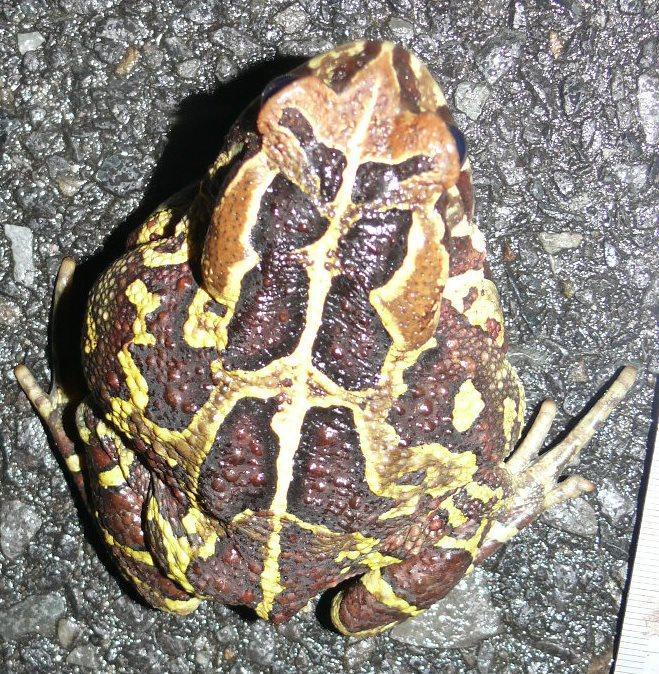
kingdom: Animalia
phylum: Chordata
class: Amphibia
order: Anura
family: Bufonidae
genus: Sclerophrys
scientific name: Sclerophrys pantherina
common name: Panther toad
